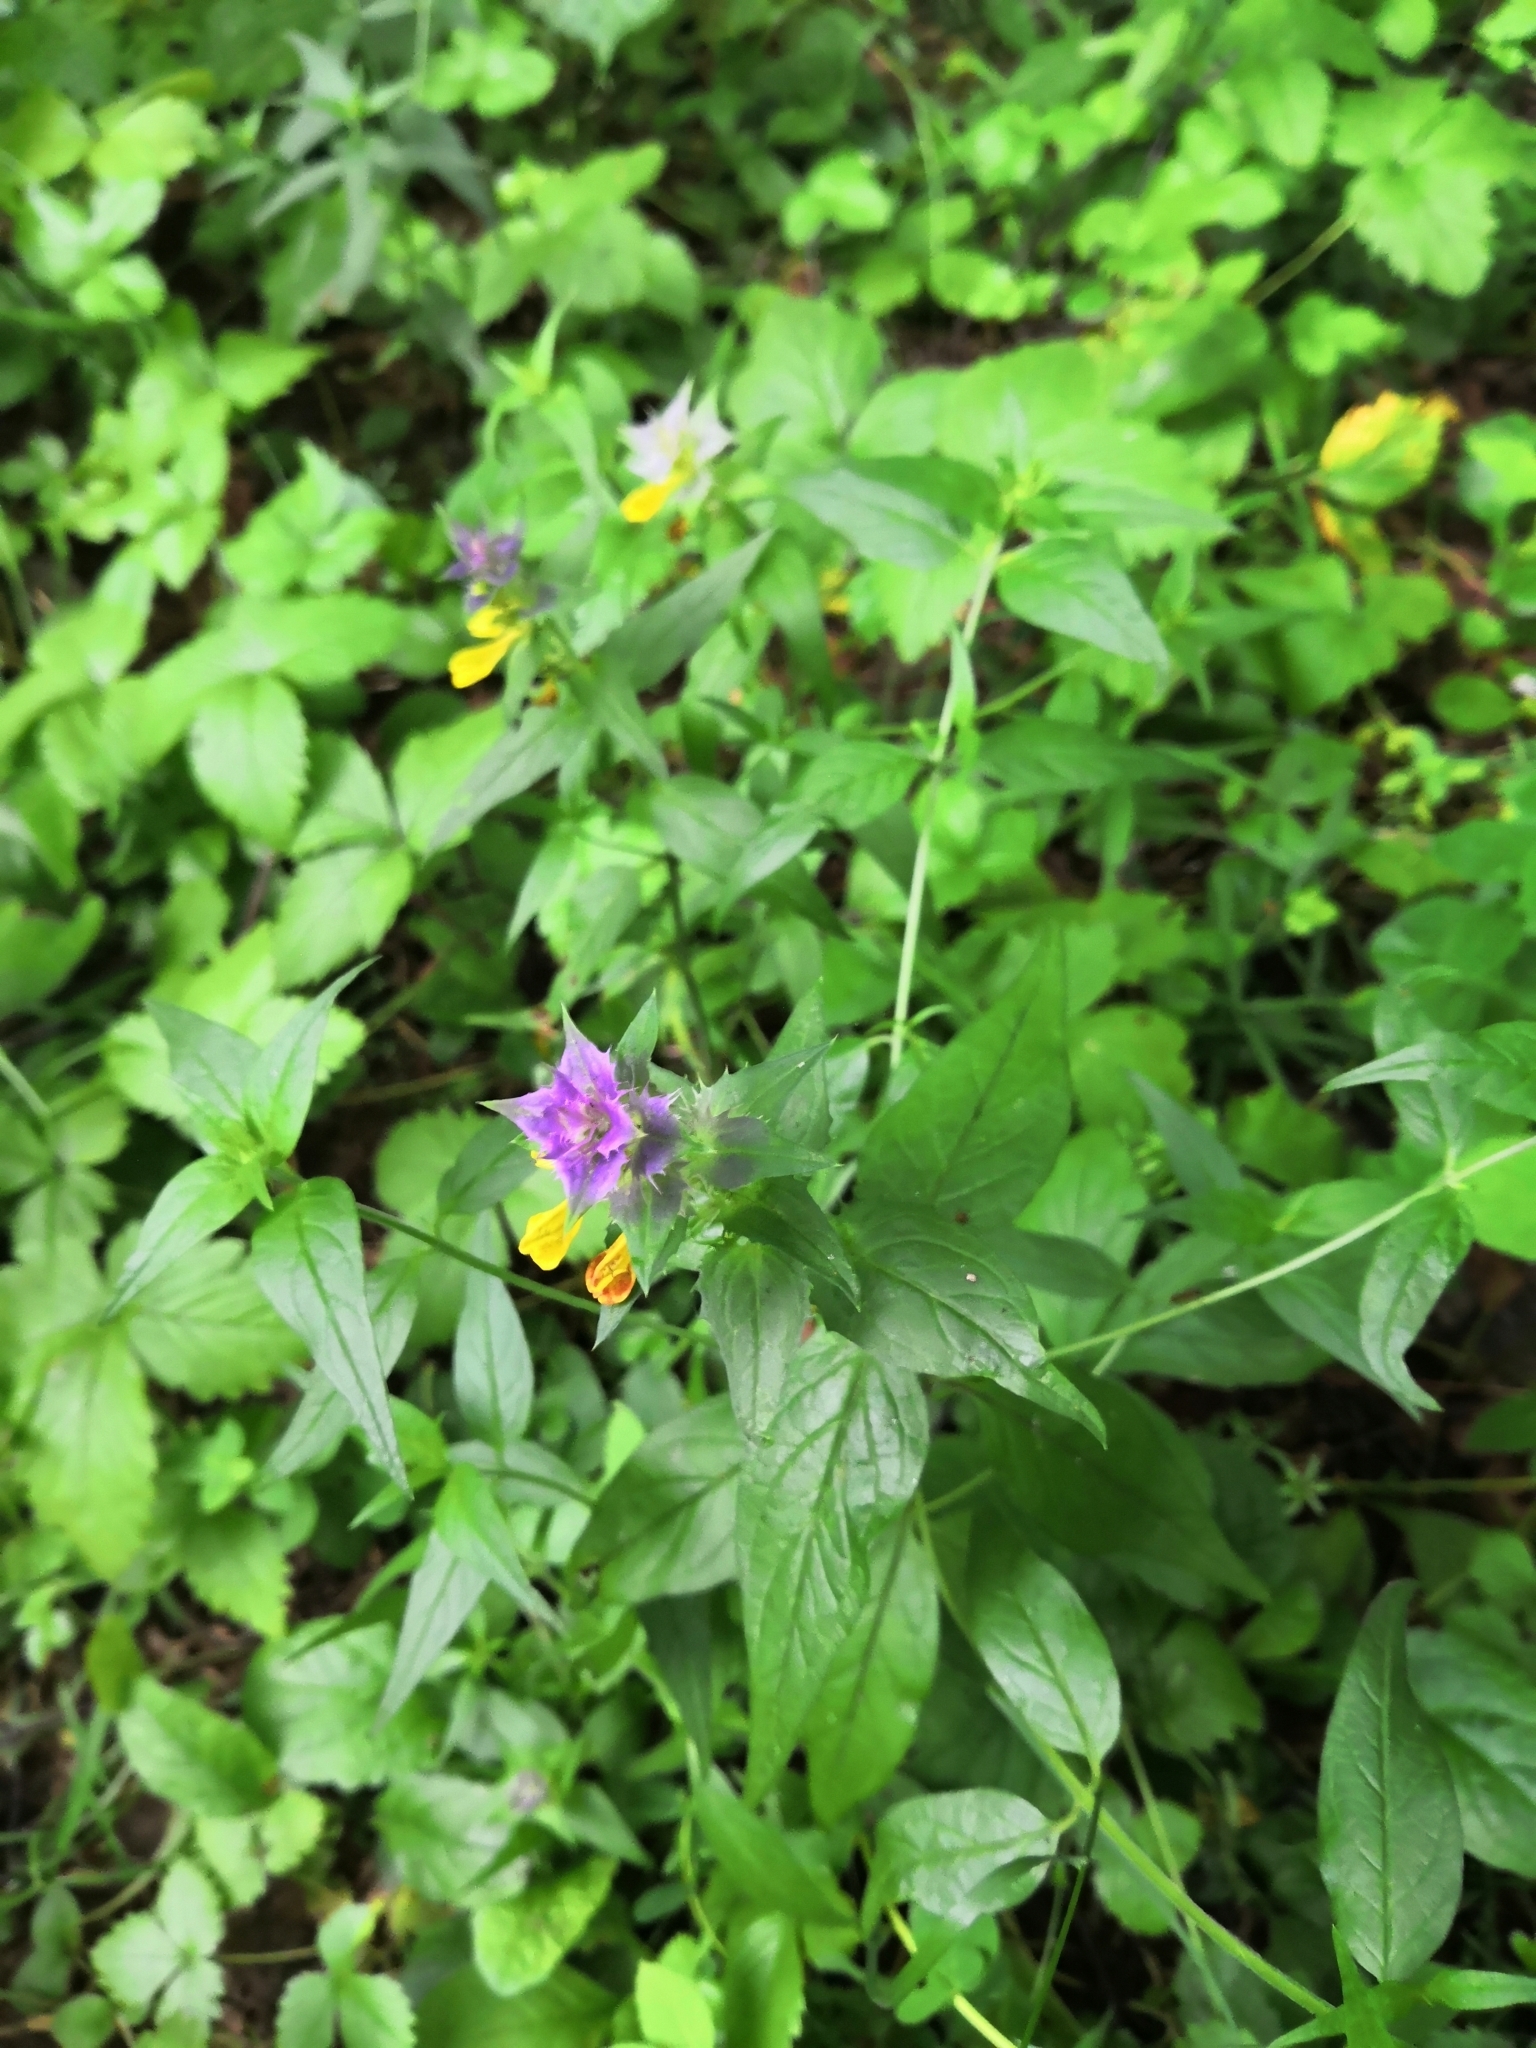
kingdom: Plantae
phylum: Tracheophyta
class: Magnoliopsida
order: Lamiales
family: Orobanchaceae
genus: Melampyrum
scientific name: Melampyrum nemorosum
